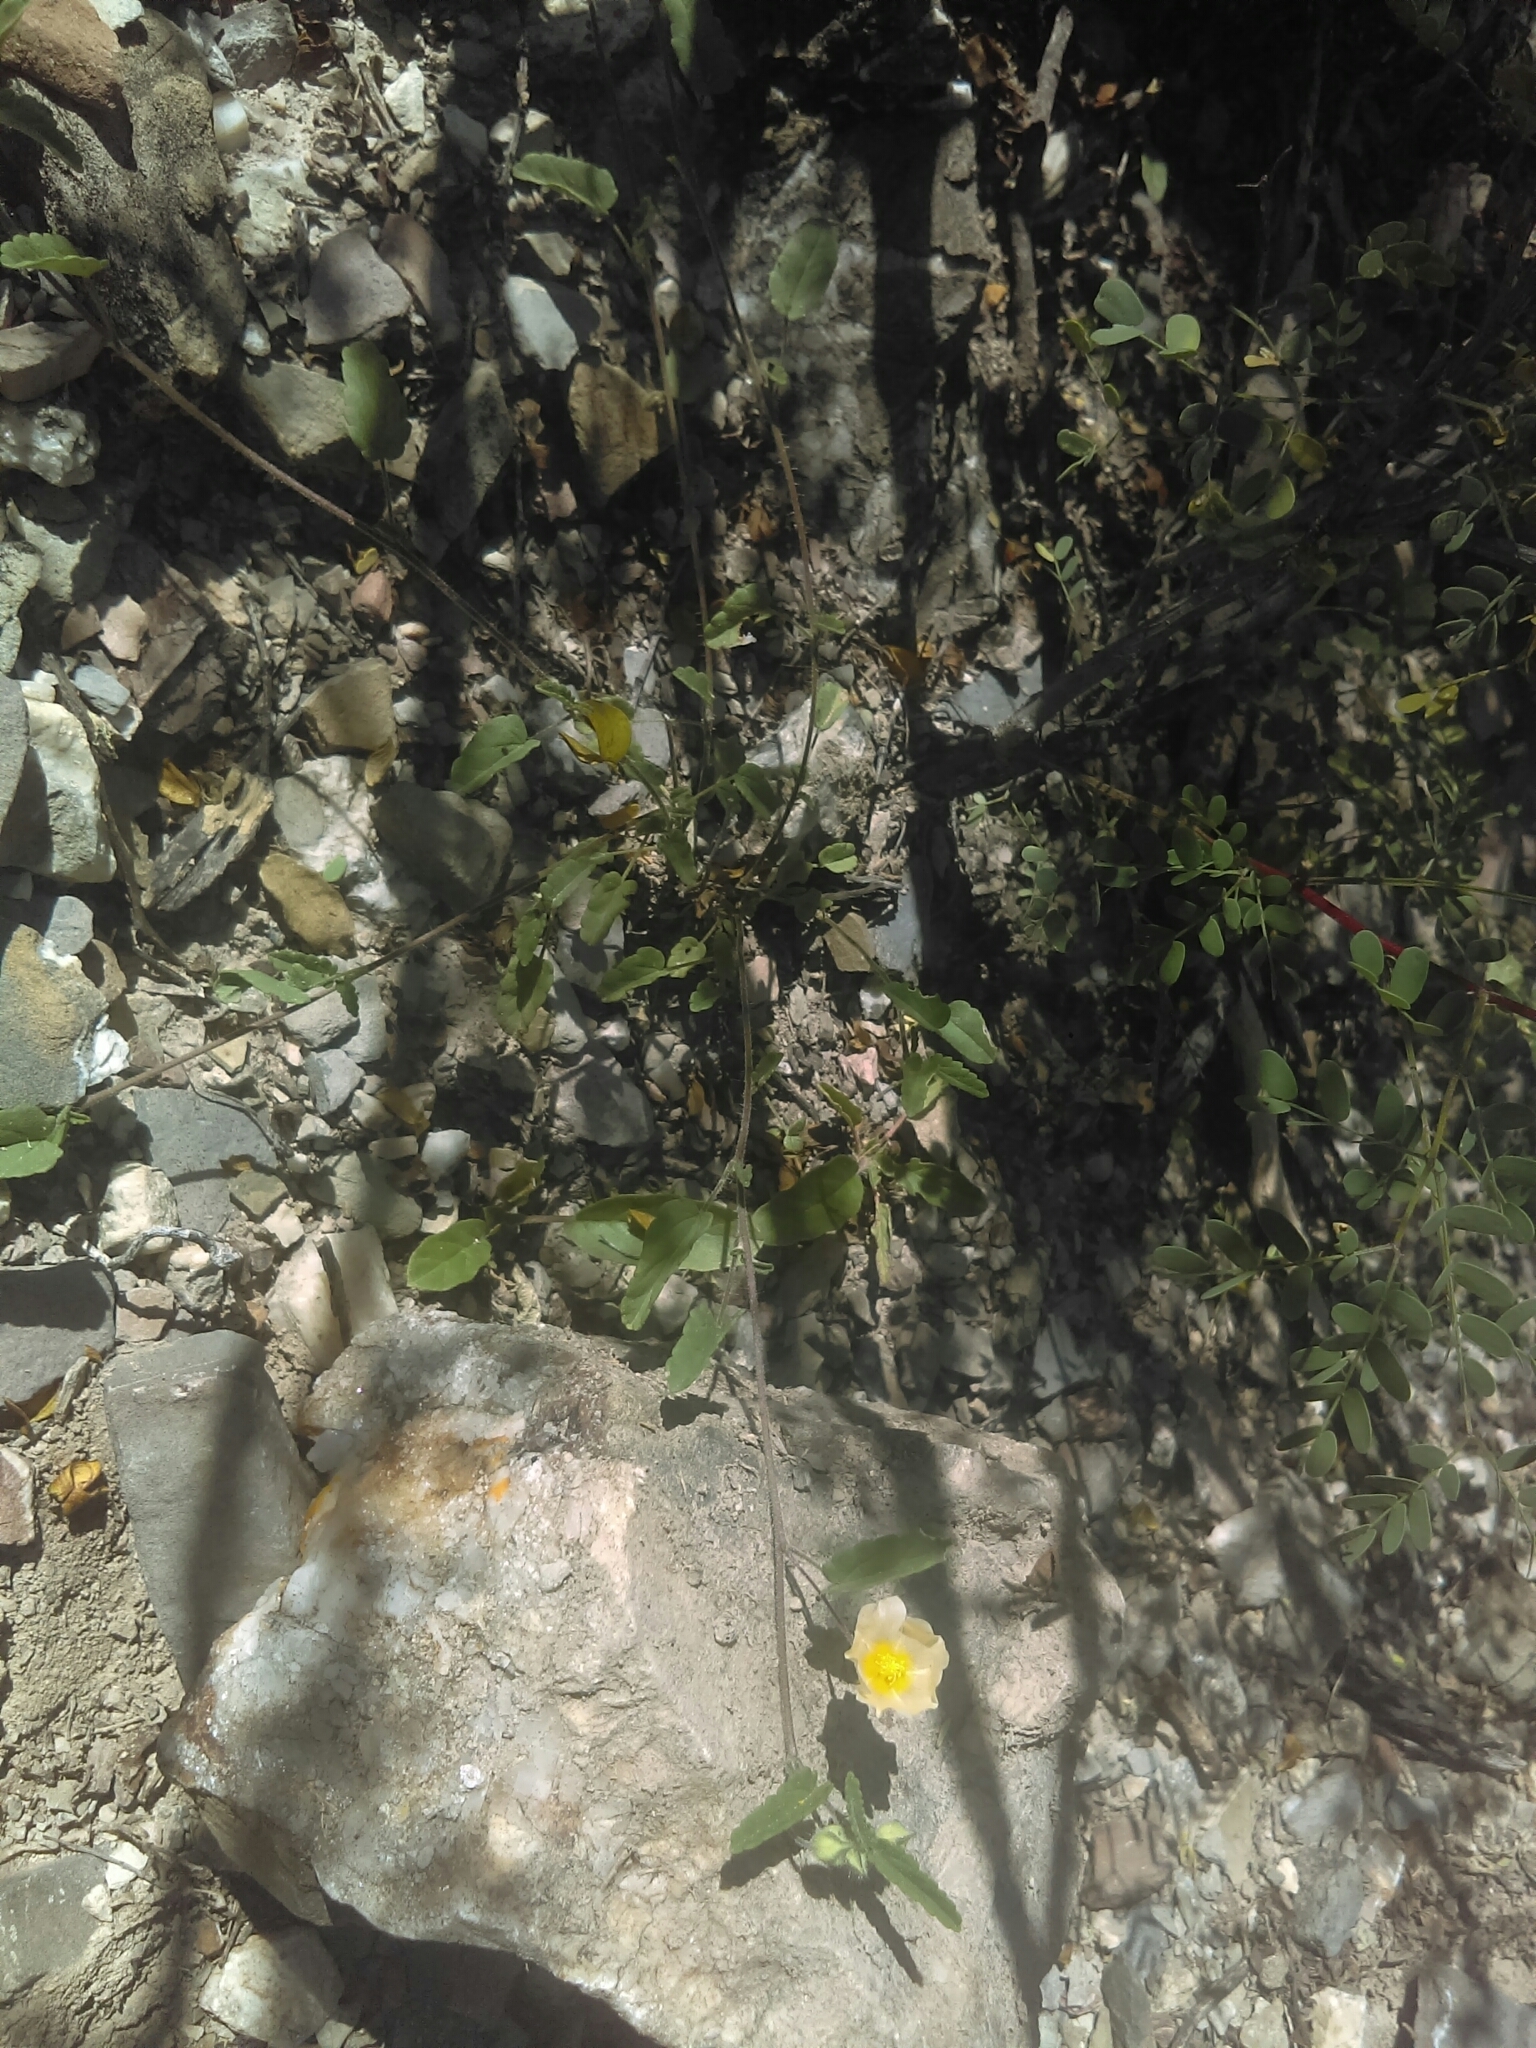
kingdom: Plantae
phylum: Tracheophyta
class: Magnoliopsida
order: Malvales
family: Malvaceae
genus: Sida
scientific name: Sida abutilifolia
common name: Spreading fanpetals
